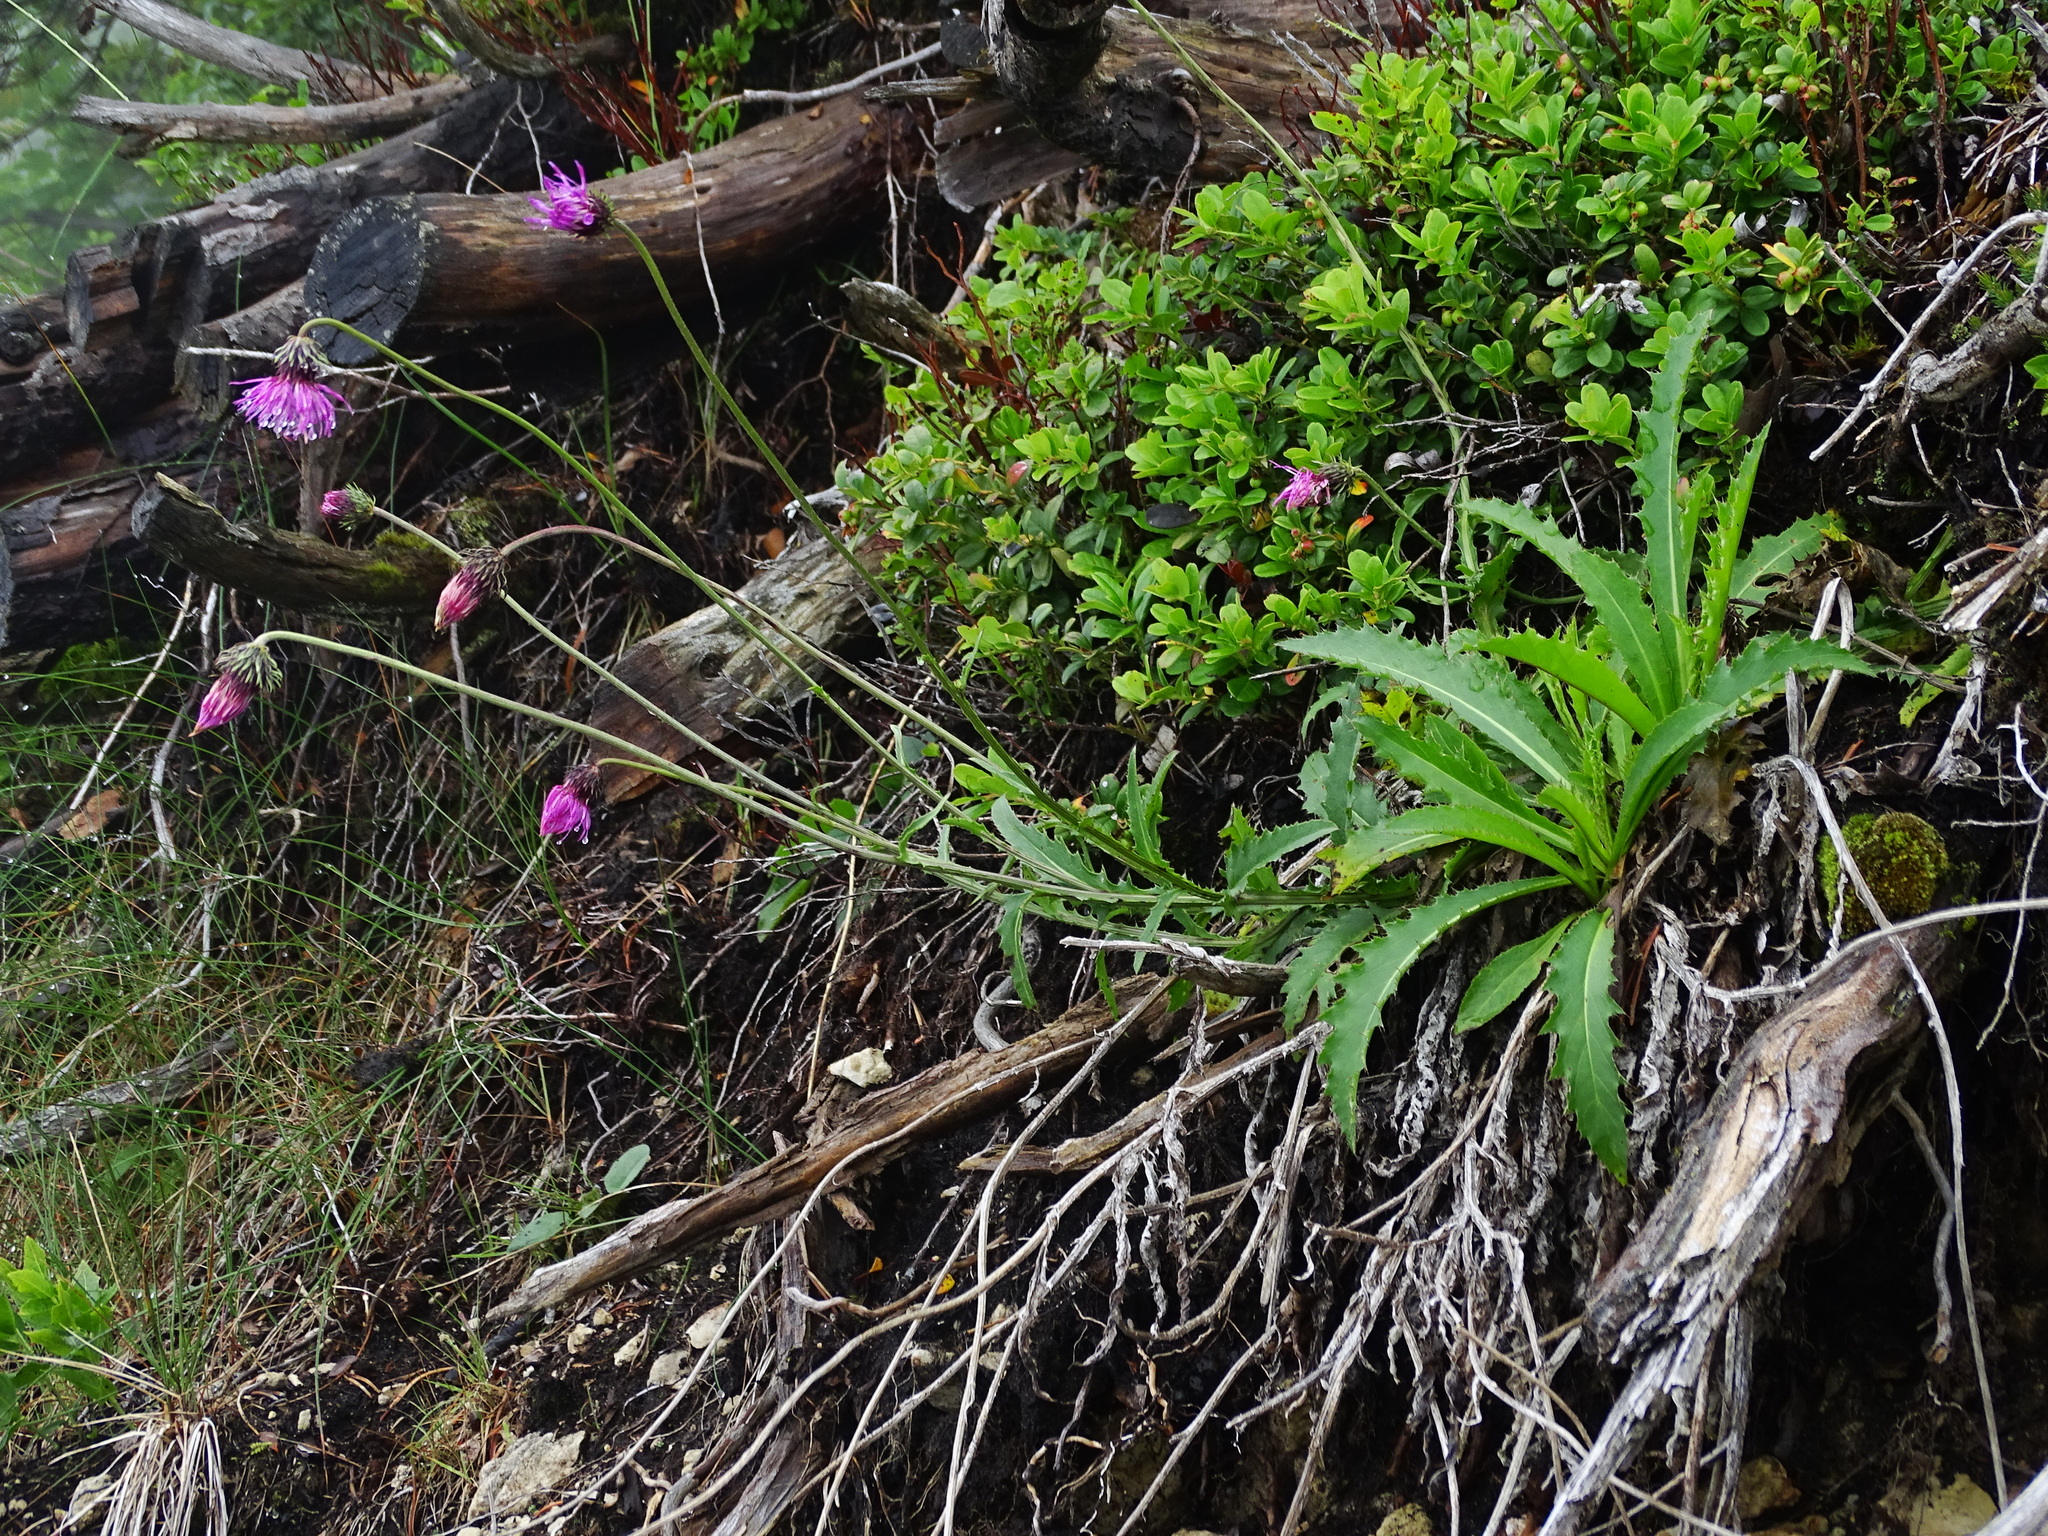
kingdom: Plantae
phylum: Tracheophyta
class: Magnoliopsida
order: Asterales
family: Asteraceae
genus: Carduus
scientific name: Carduus defloratus
